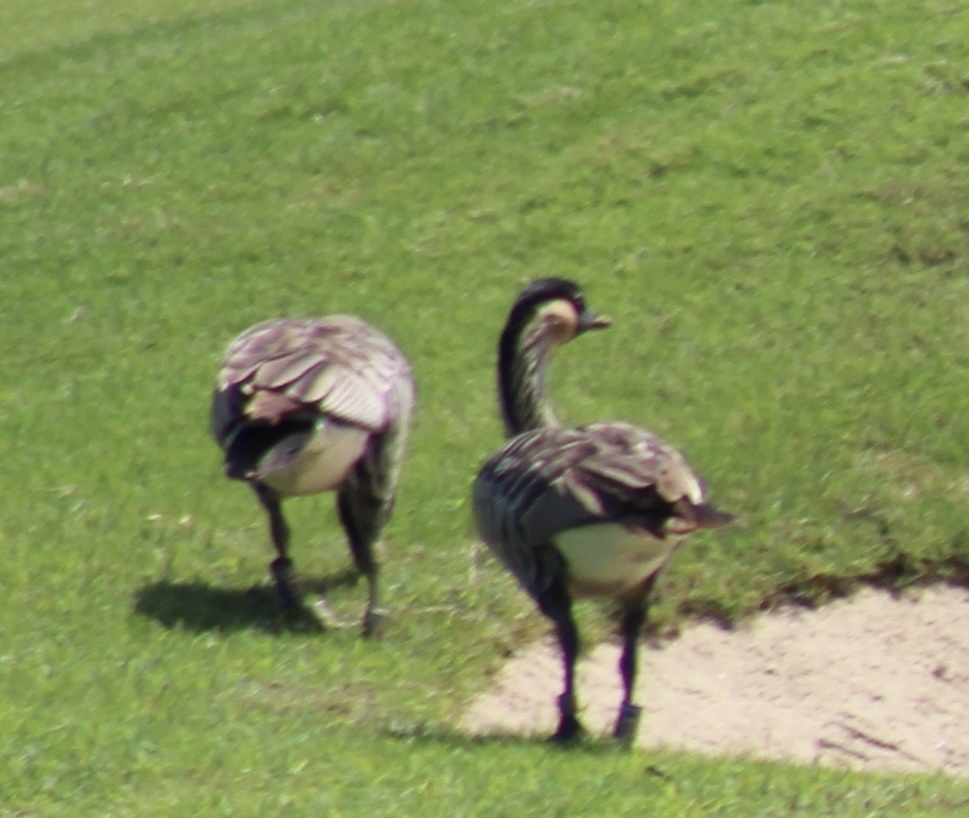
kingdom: Animalia
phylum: Chordata
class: Aves
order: Anseriformes
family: Anatidae
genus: Branta
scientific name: Branta sandvicensis
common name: Nene
